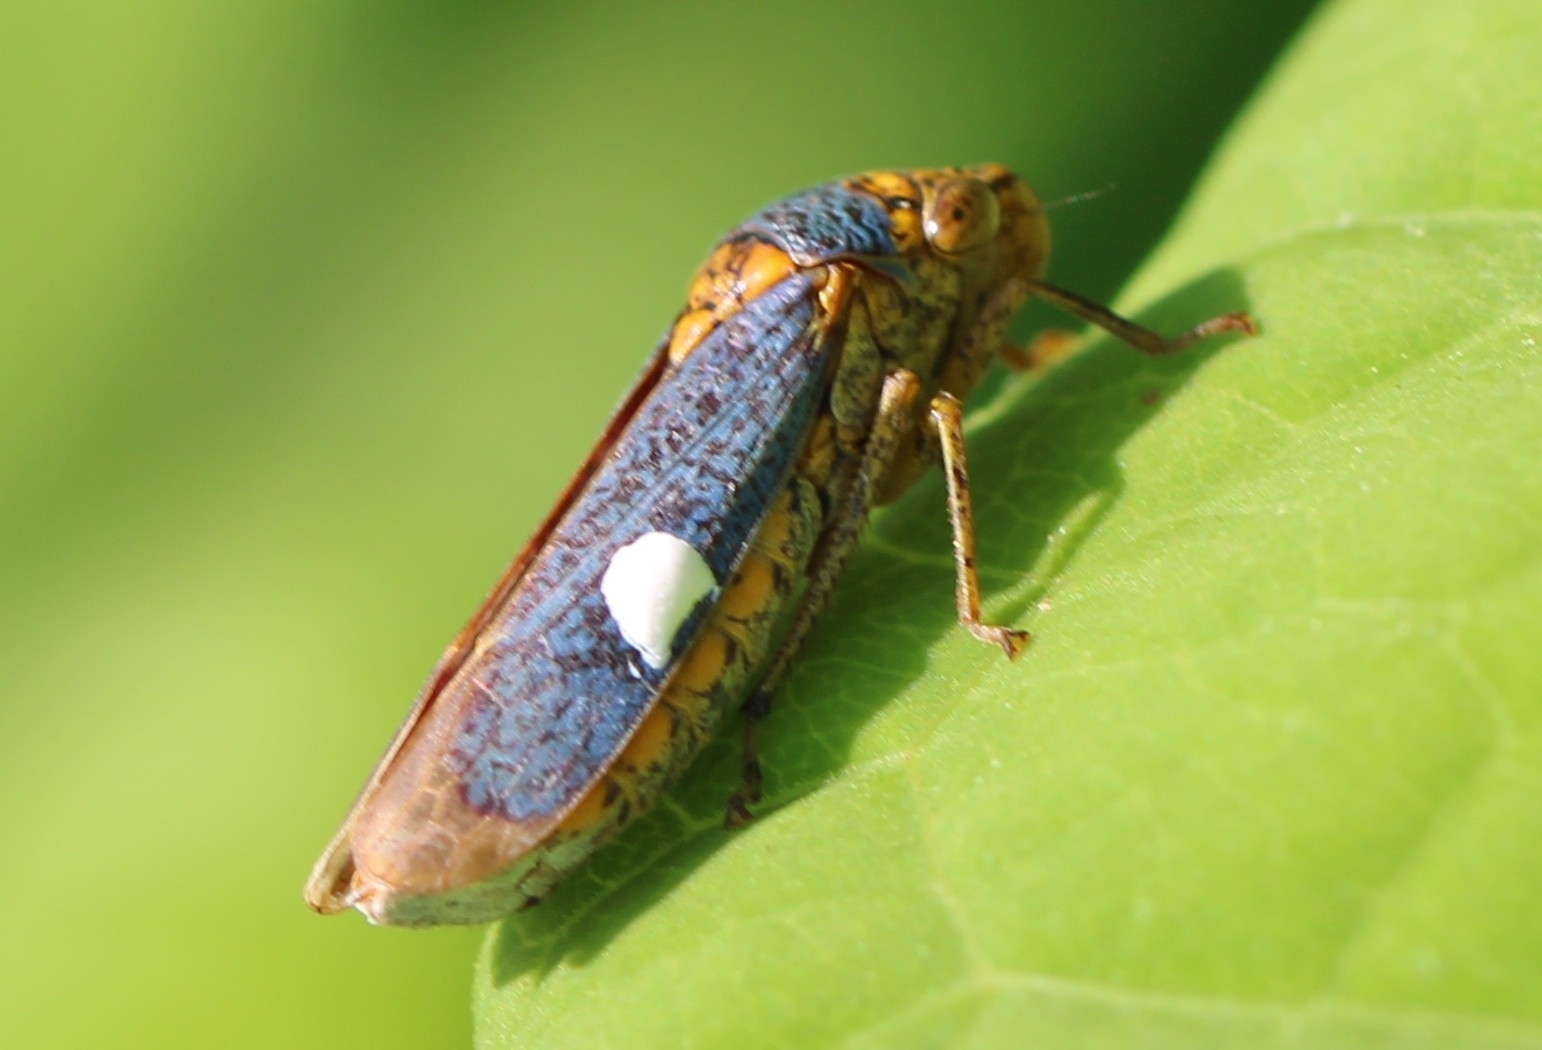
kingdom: Animalia
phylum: Arthropoda
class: Insecta
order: Hemiptera
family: Cicadellidae
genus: Oncometopia
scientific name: Oncometopia orbona
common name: Broad-headed sharpshooter
